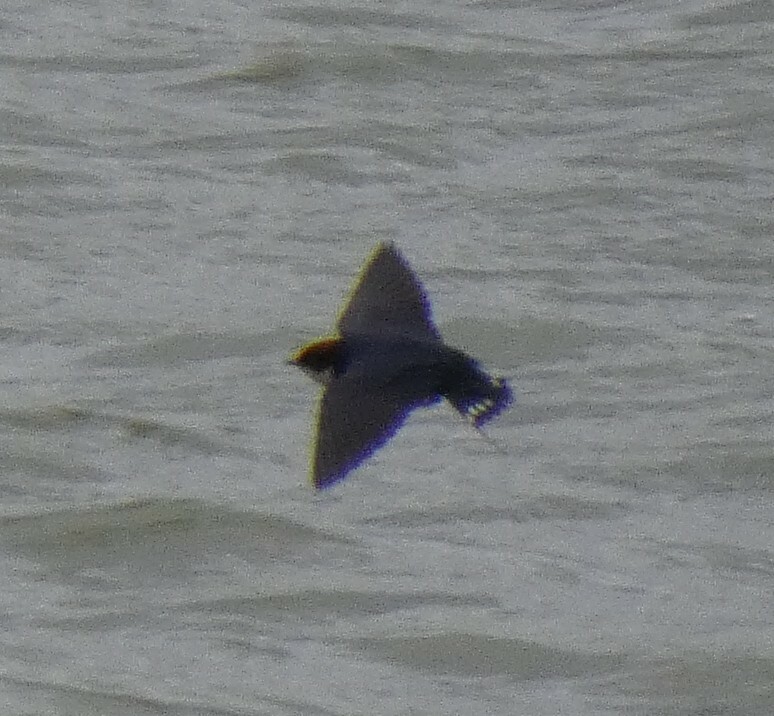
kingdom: Animalia
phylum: Chordata
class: Aves
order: Passeriformes
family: Hirundinidae
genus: Hirundo
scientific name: Hirundo smithii
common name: Wire-tailed swallow
